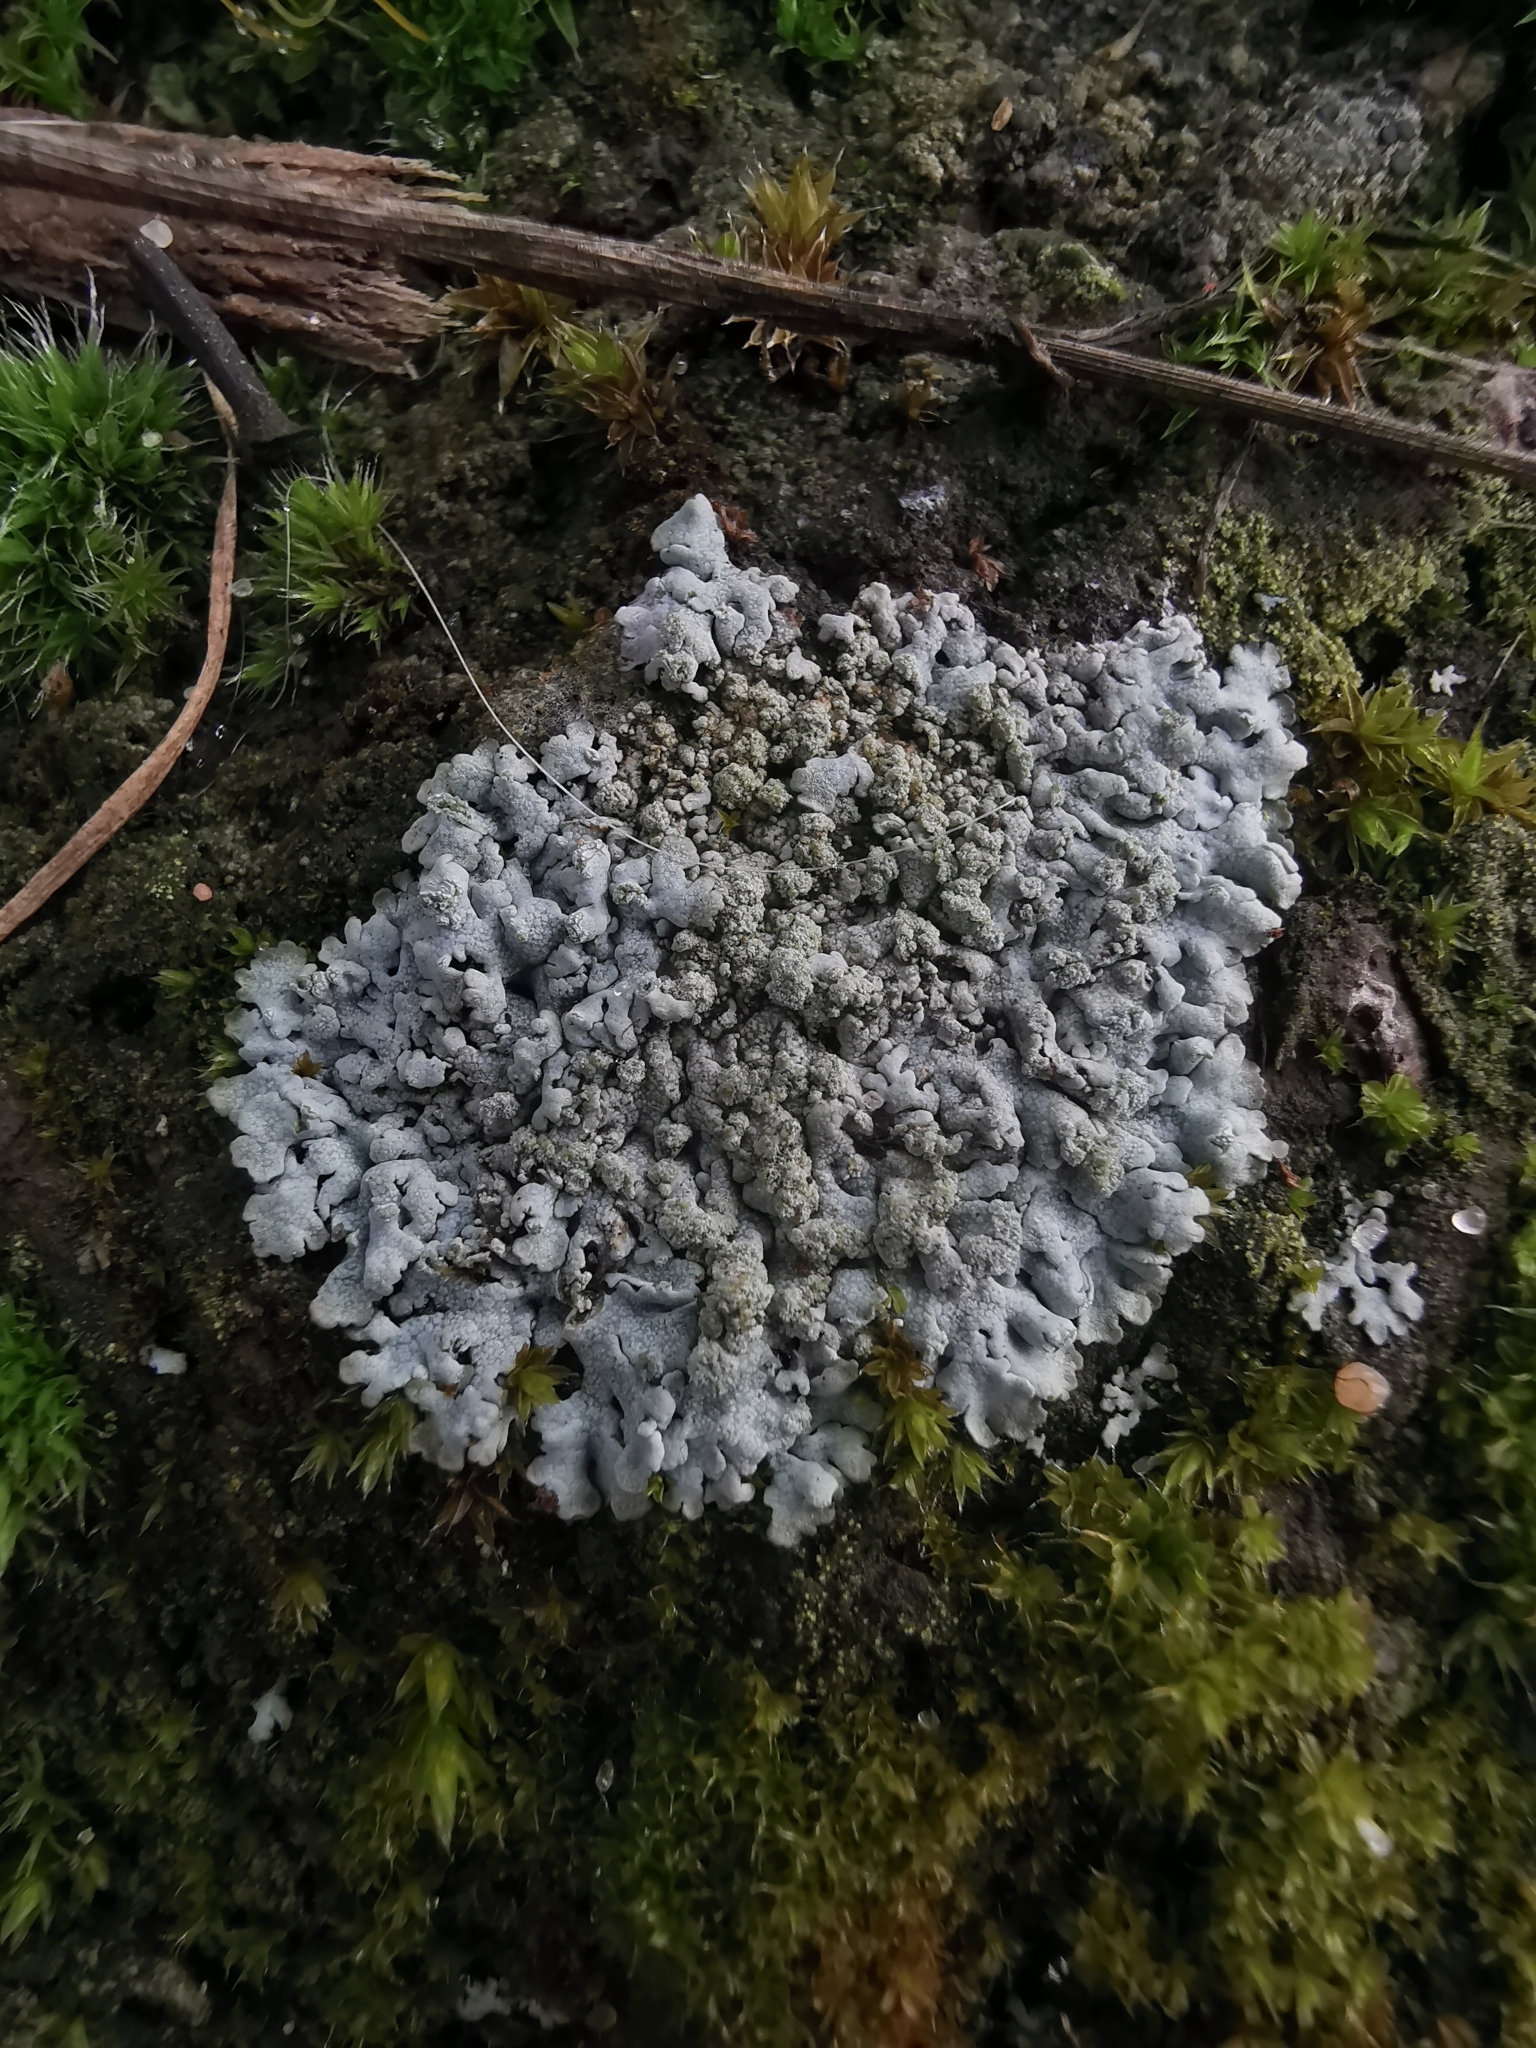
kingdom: Fungi
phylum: Ascomycota
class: Lecanoromycetes
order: Caliciales
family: Physciaceae
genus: Physcia
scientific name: Physcia caesia
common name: Blue-gray rosette lichen
